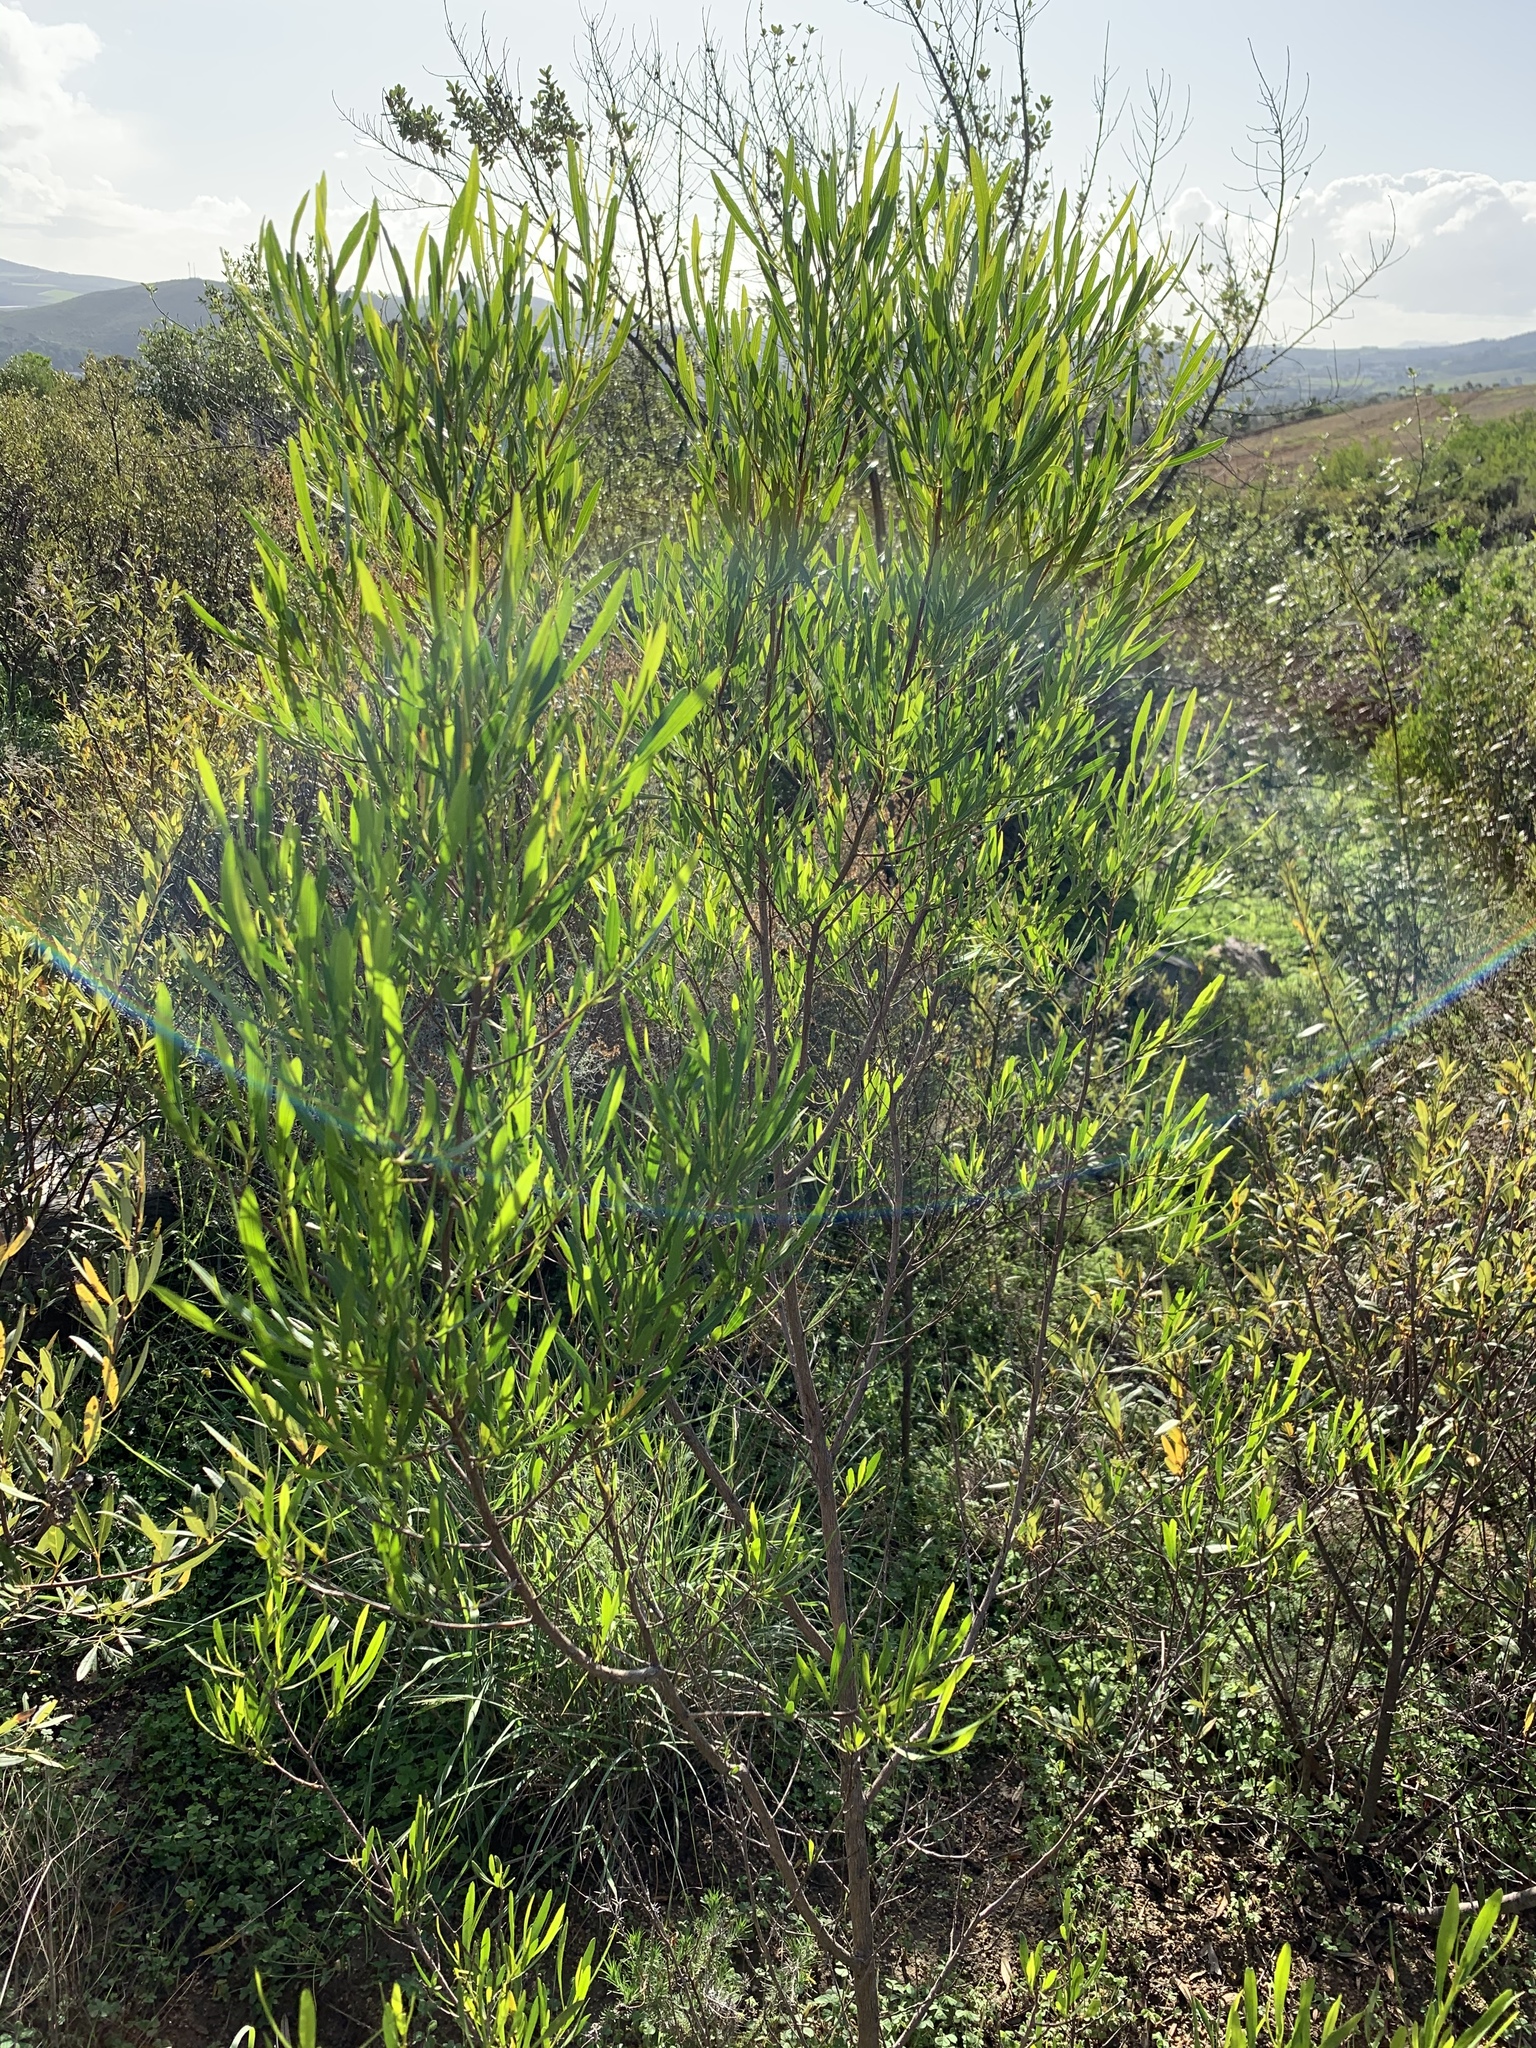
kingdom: Plantae
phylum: Tracheophyta
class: Magnoliopsida
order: Sapindales
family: Sapindaceae
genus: Dodonaea
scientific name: Dodonaea viscosa
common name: Hopbush
